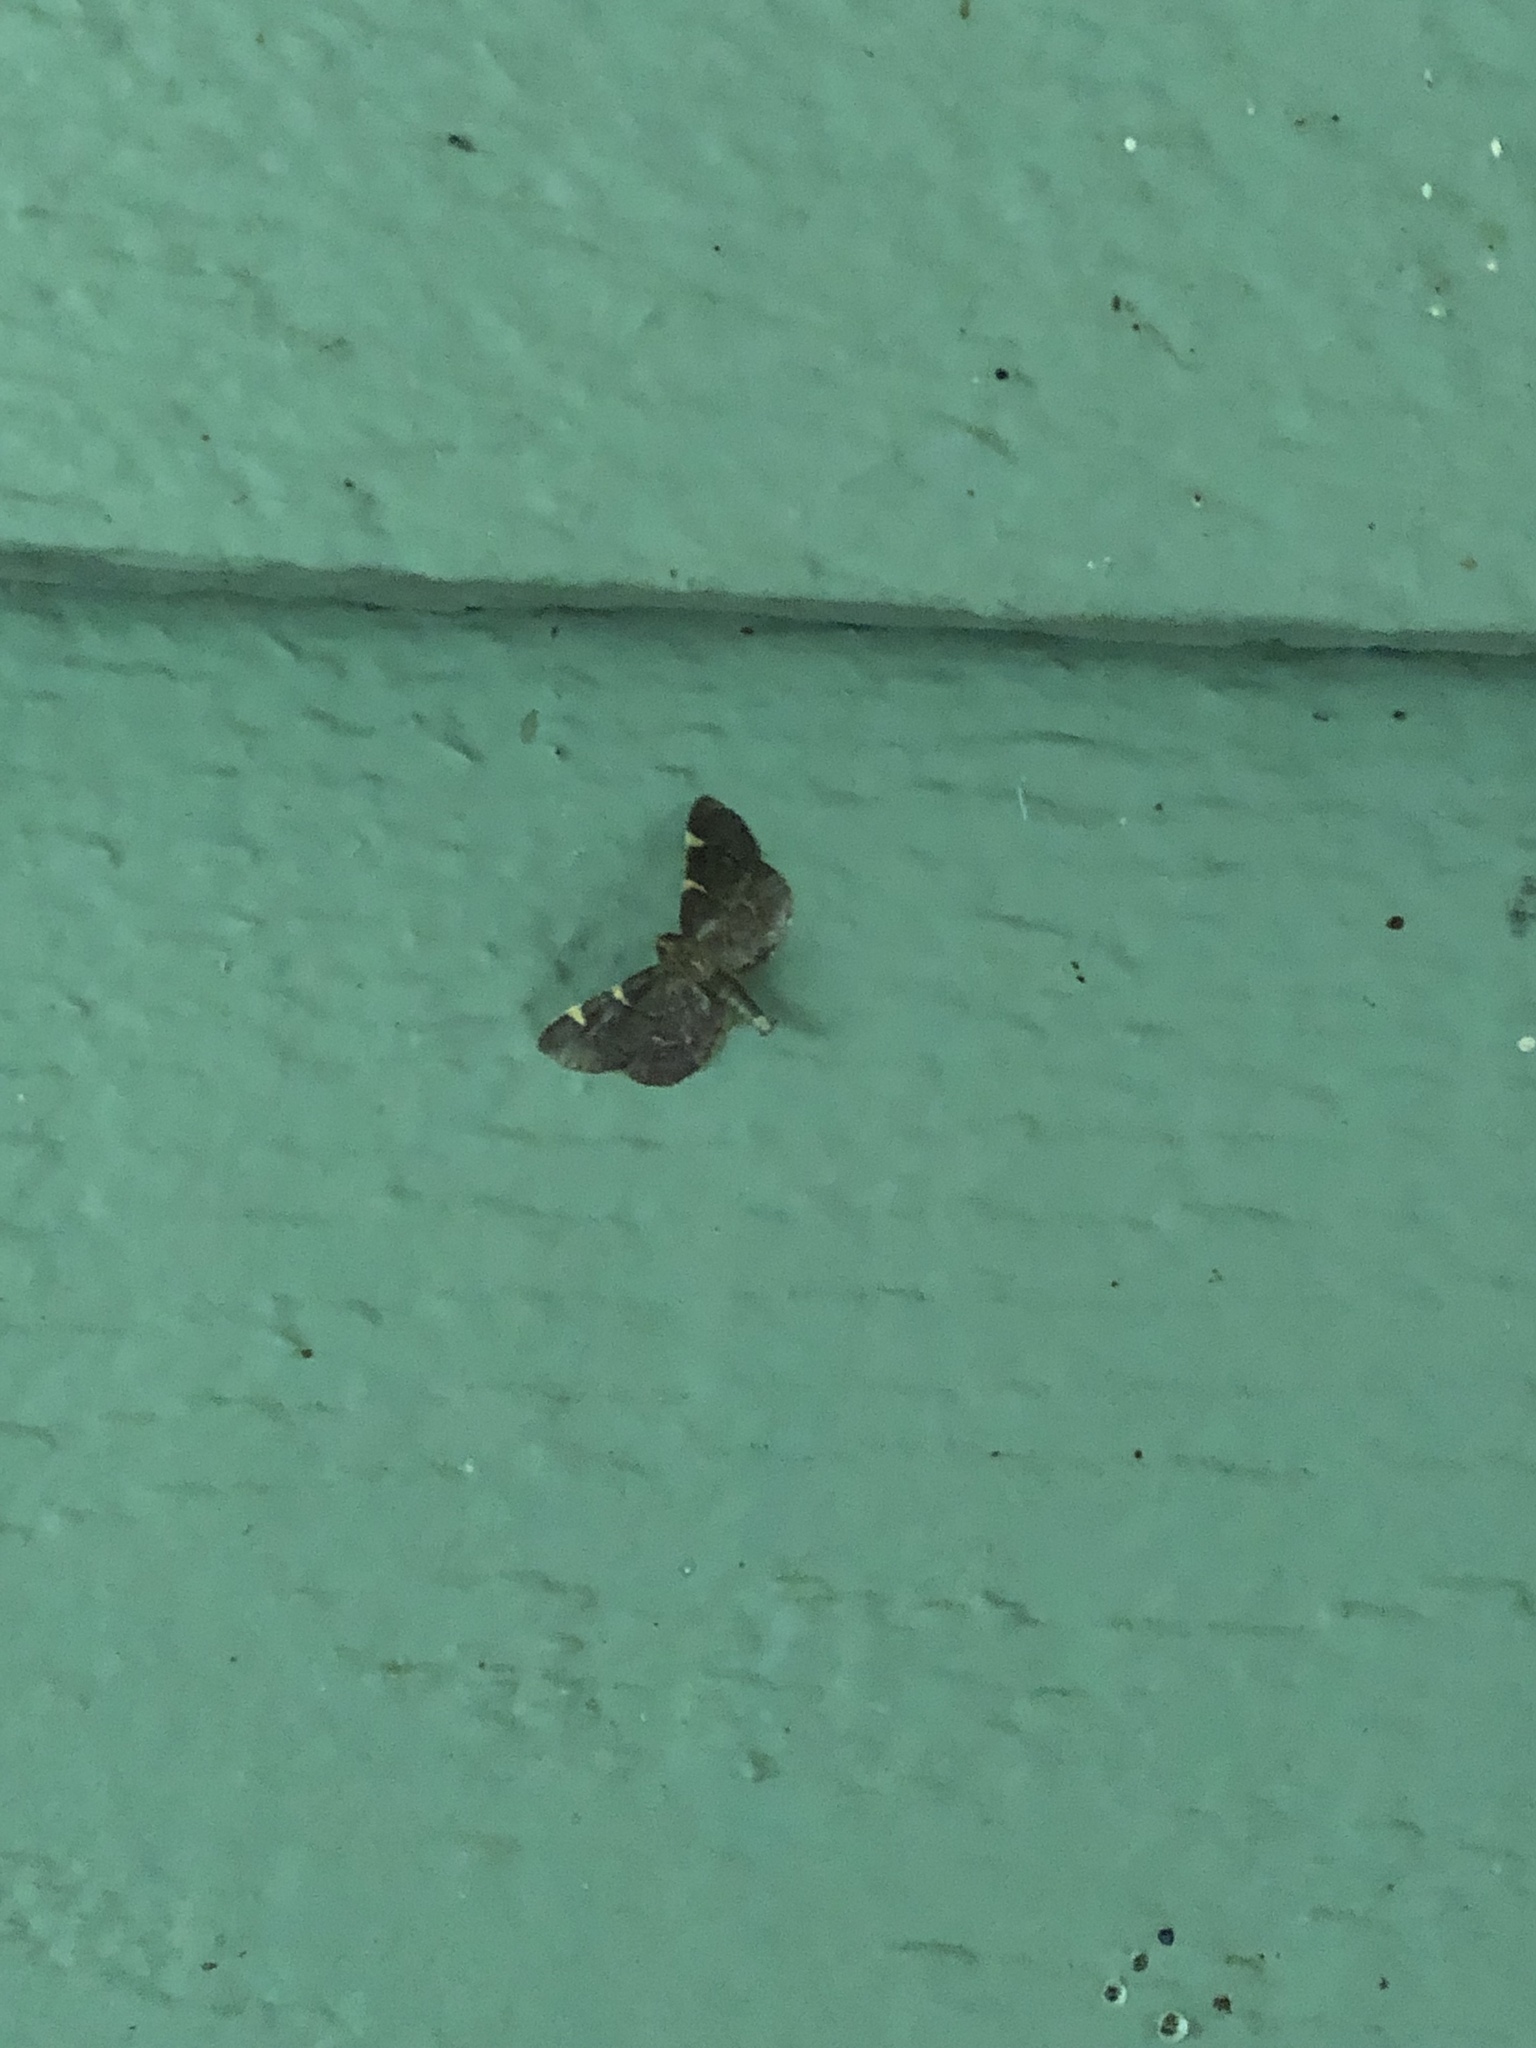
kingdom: Animalia
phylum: Arthropoda
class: Insecta
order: Lepidoptera
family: Pyralidae
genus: Hypsopygia
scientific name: Hypsopygia olinalis
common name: Yellow-fringed dolichomia moth
